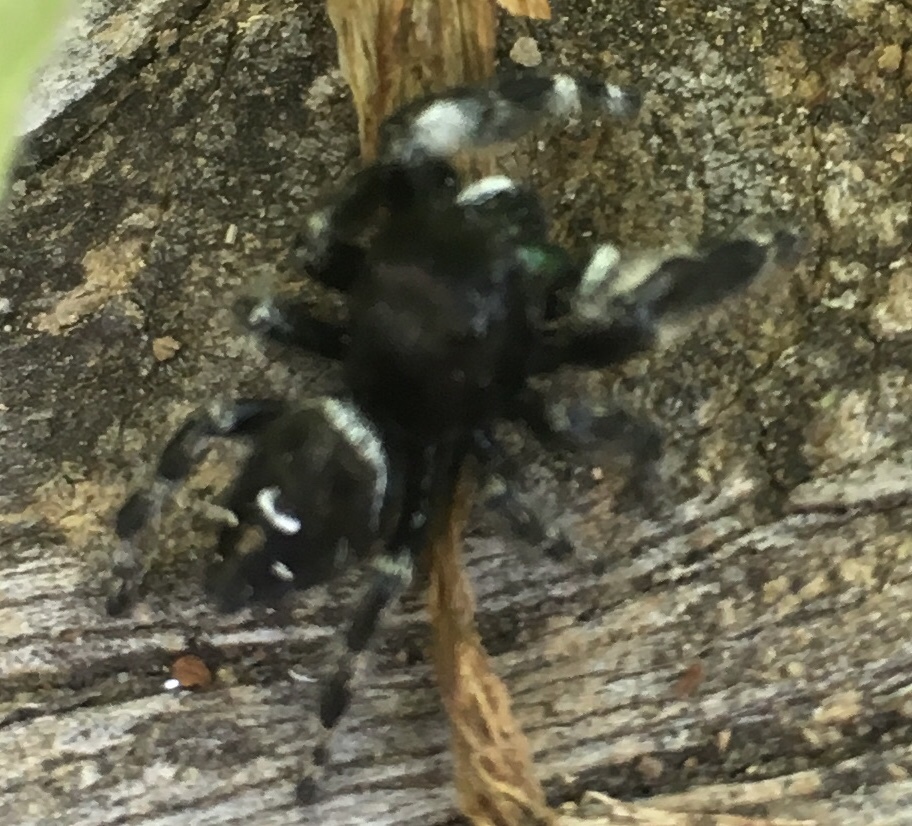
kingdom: Animalia
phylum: Arthropoda
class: Arachnida
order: Araneae
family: Salticidae
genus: Phidippus
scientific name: Phidippus audax
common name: Bold jumper
